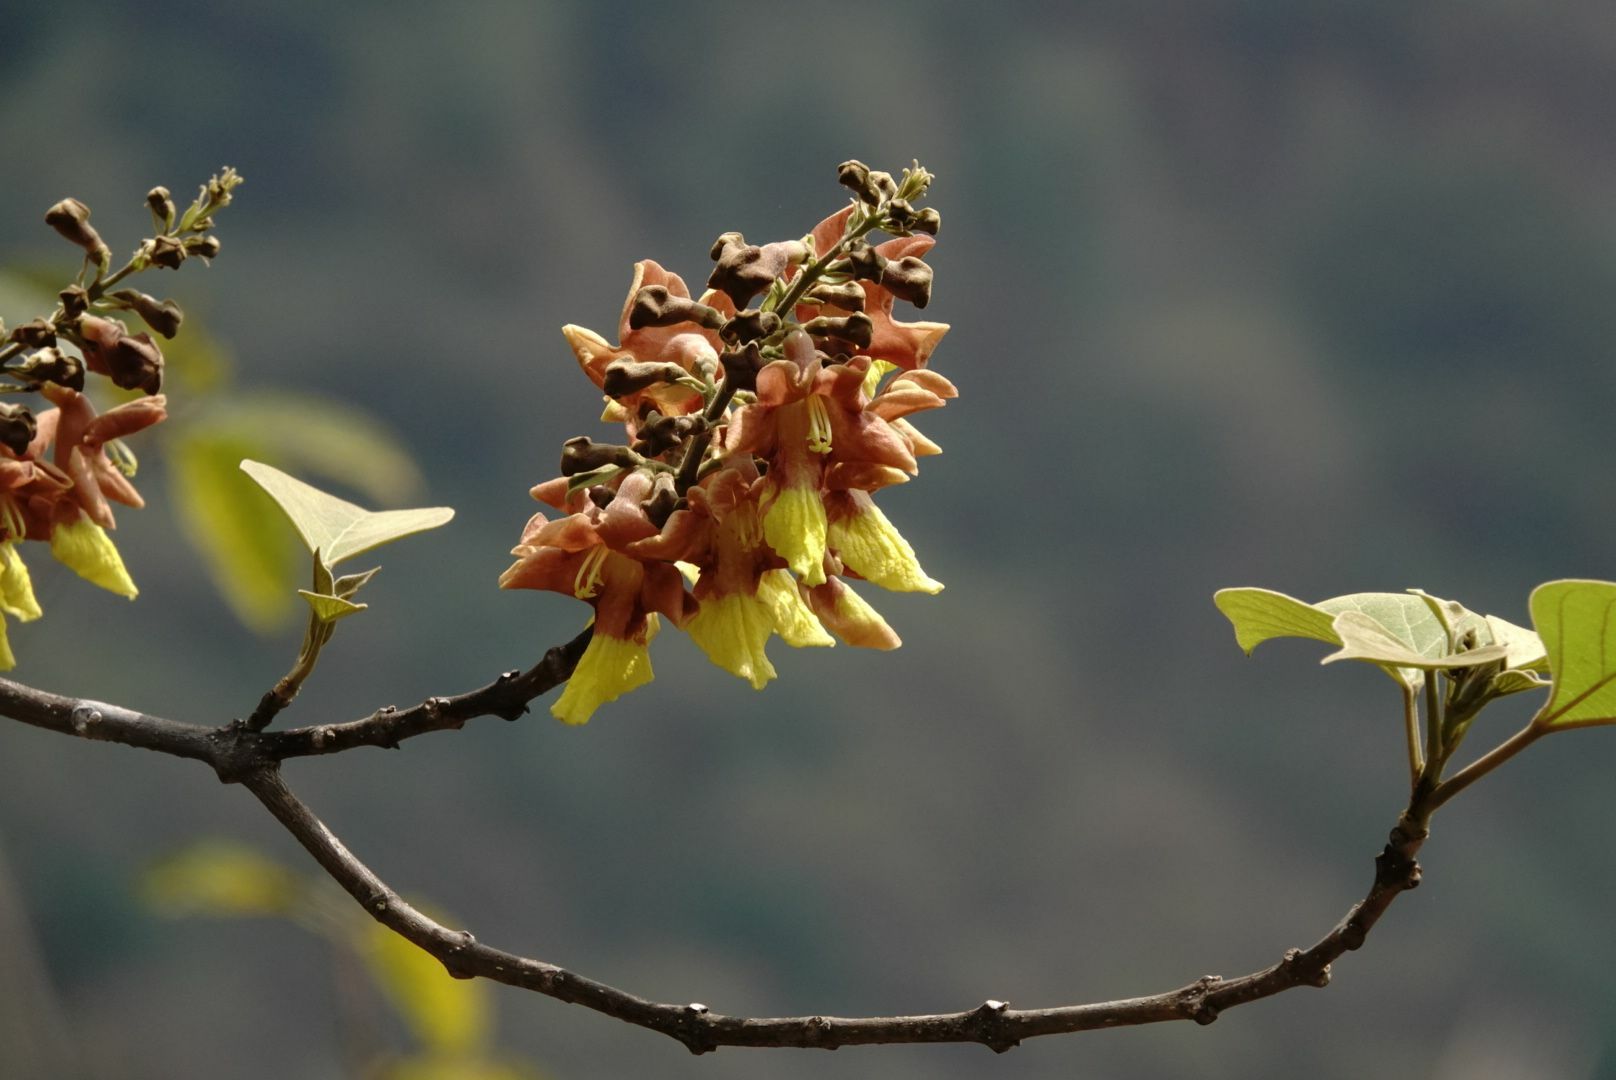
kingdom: Plantae
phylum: Tracheophyta
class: Magnoliopsida
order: Lamiales
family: Lamiaceae
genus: Gmelina
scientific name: Gmelina arborea
